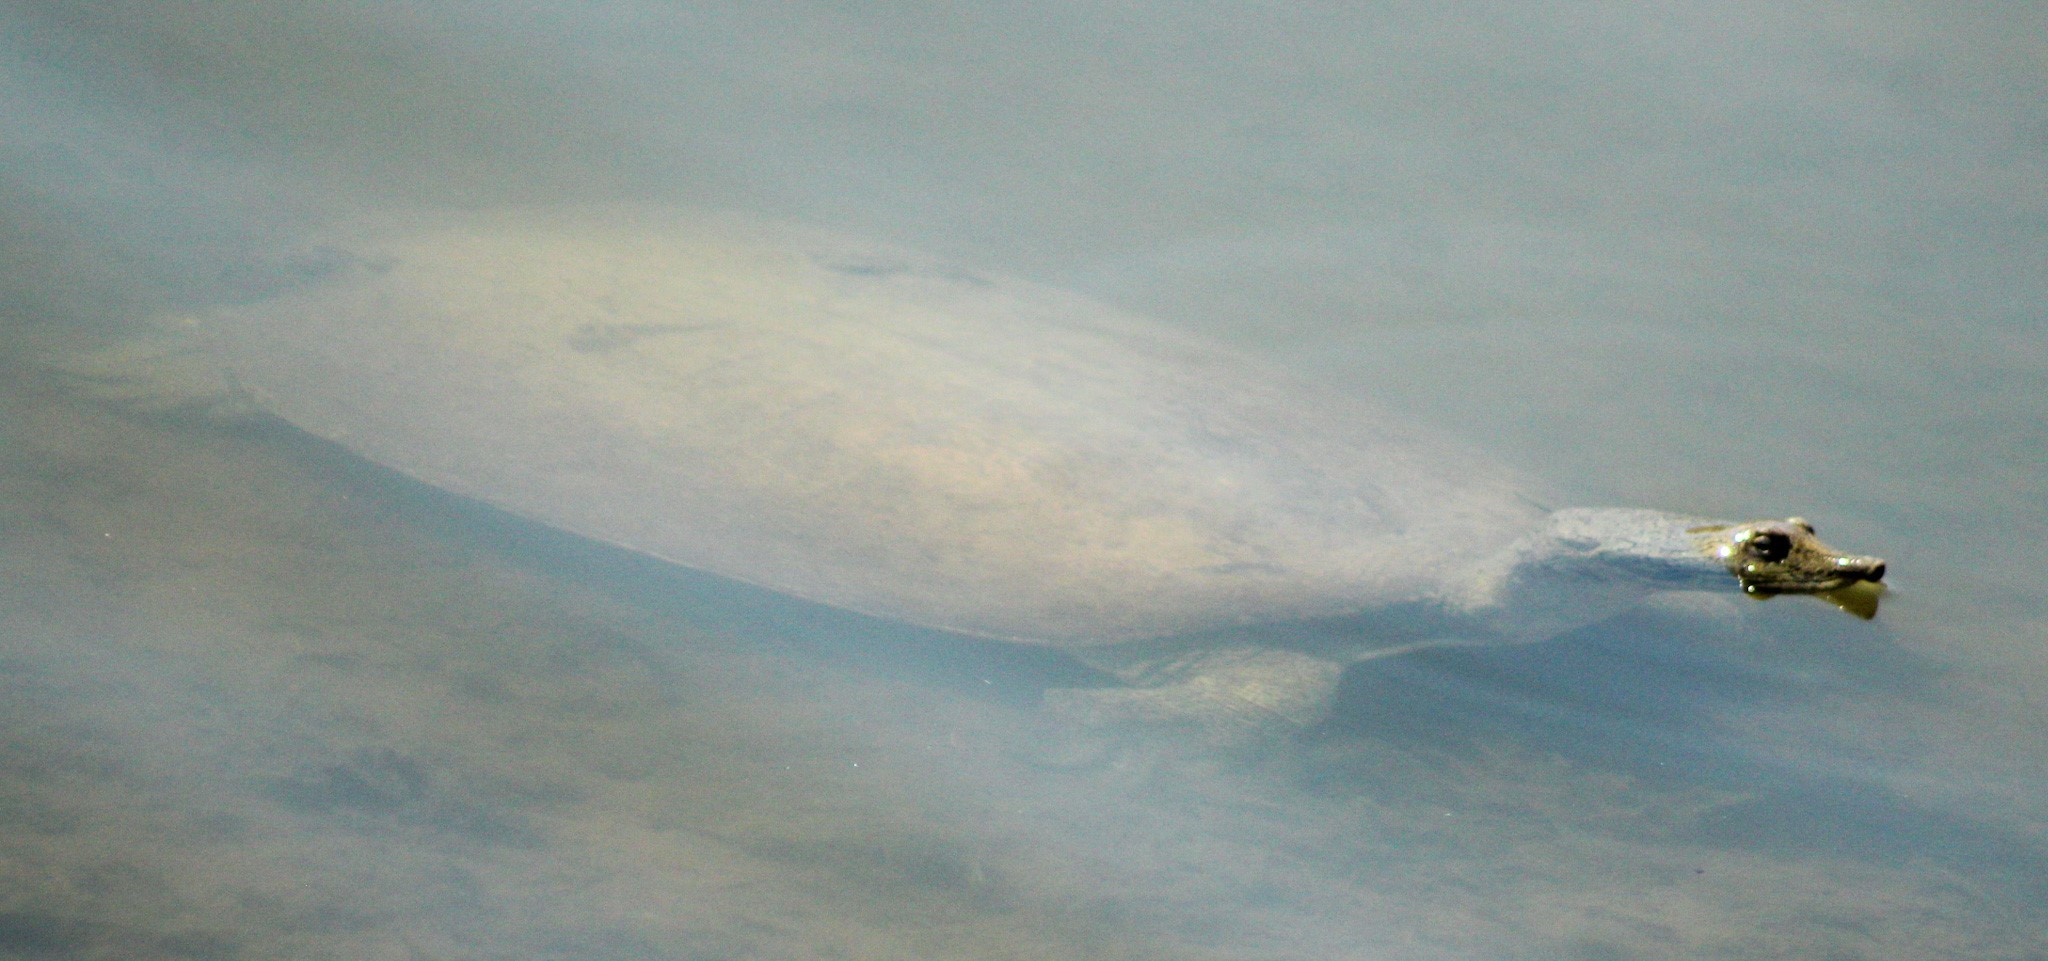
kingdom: Animalia
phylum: Chordata
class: Testudines
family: Trionychidae
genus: Apalone
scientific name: Apalone spinifera
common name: Spiny softshell turtle
